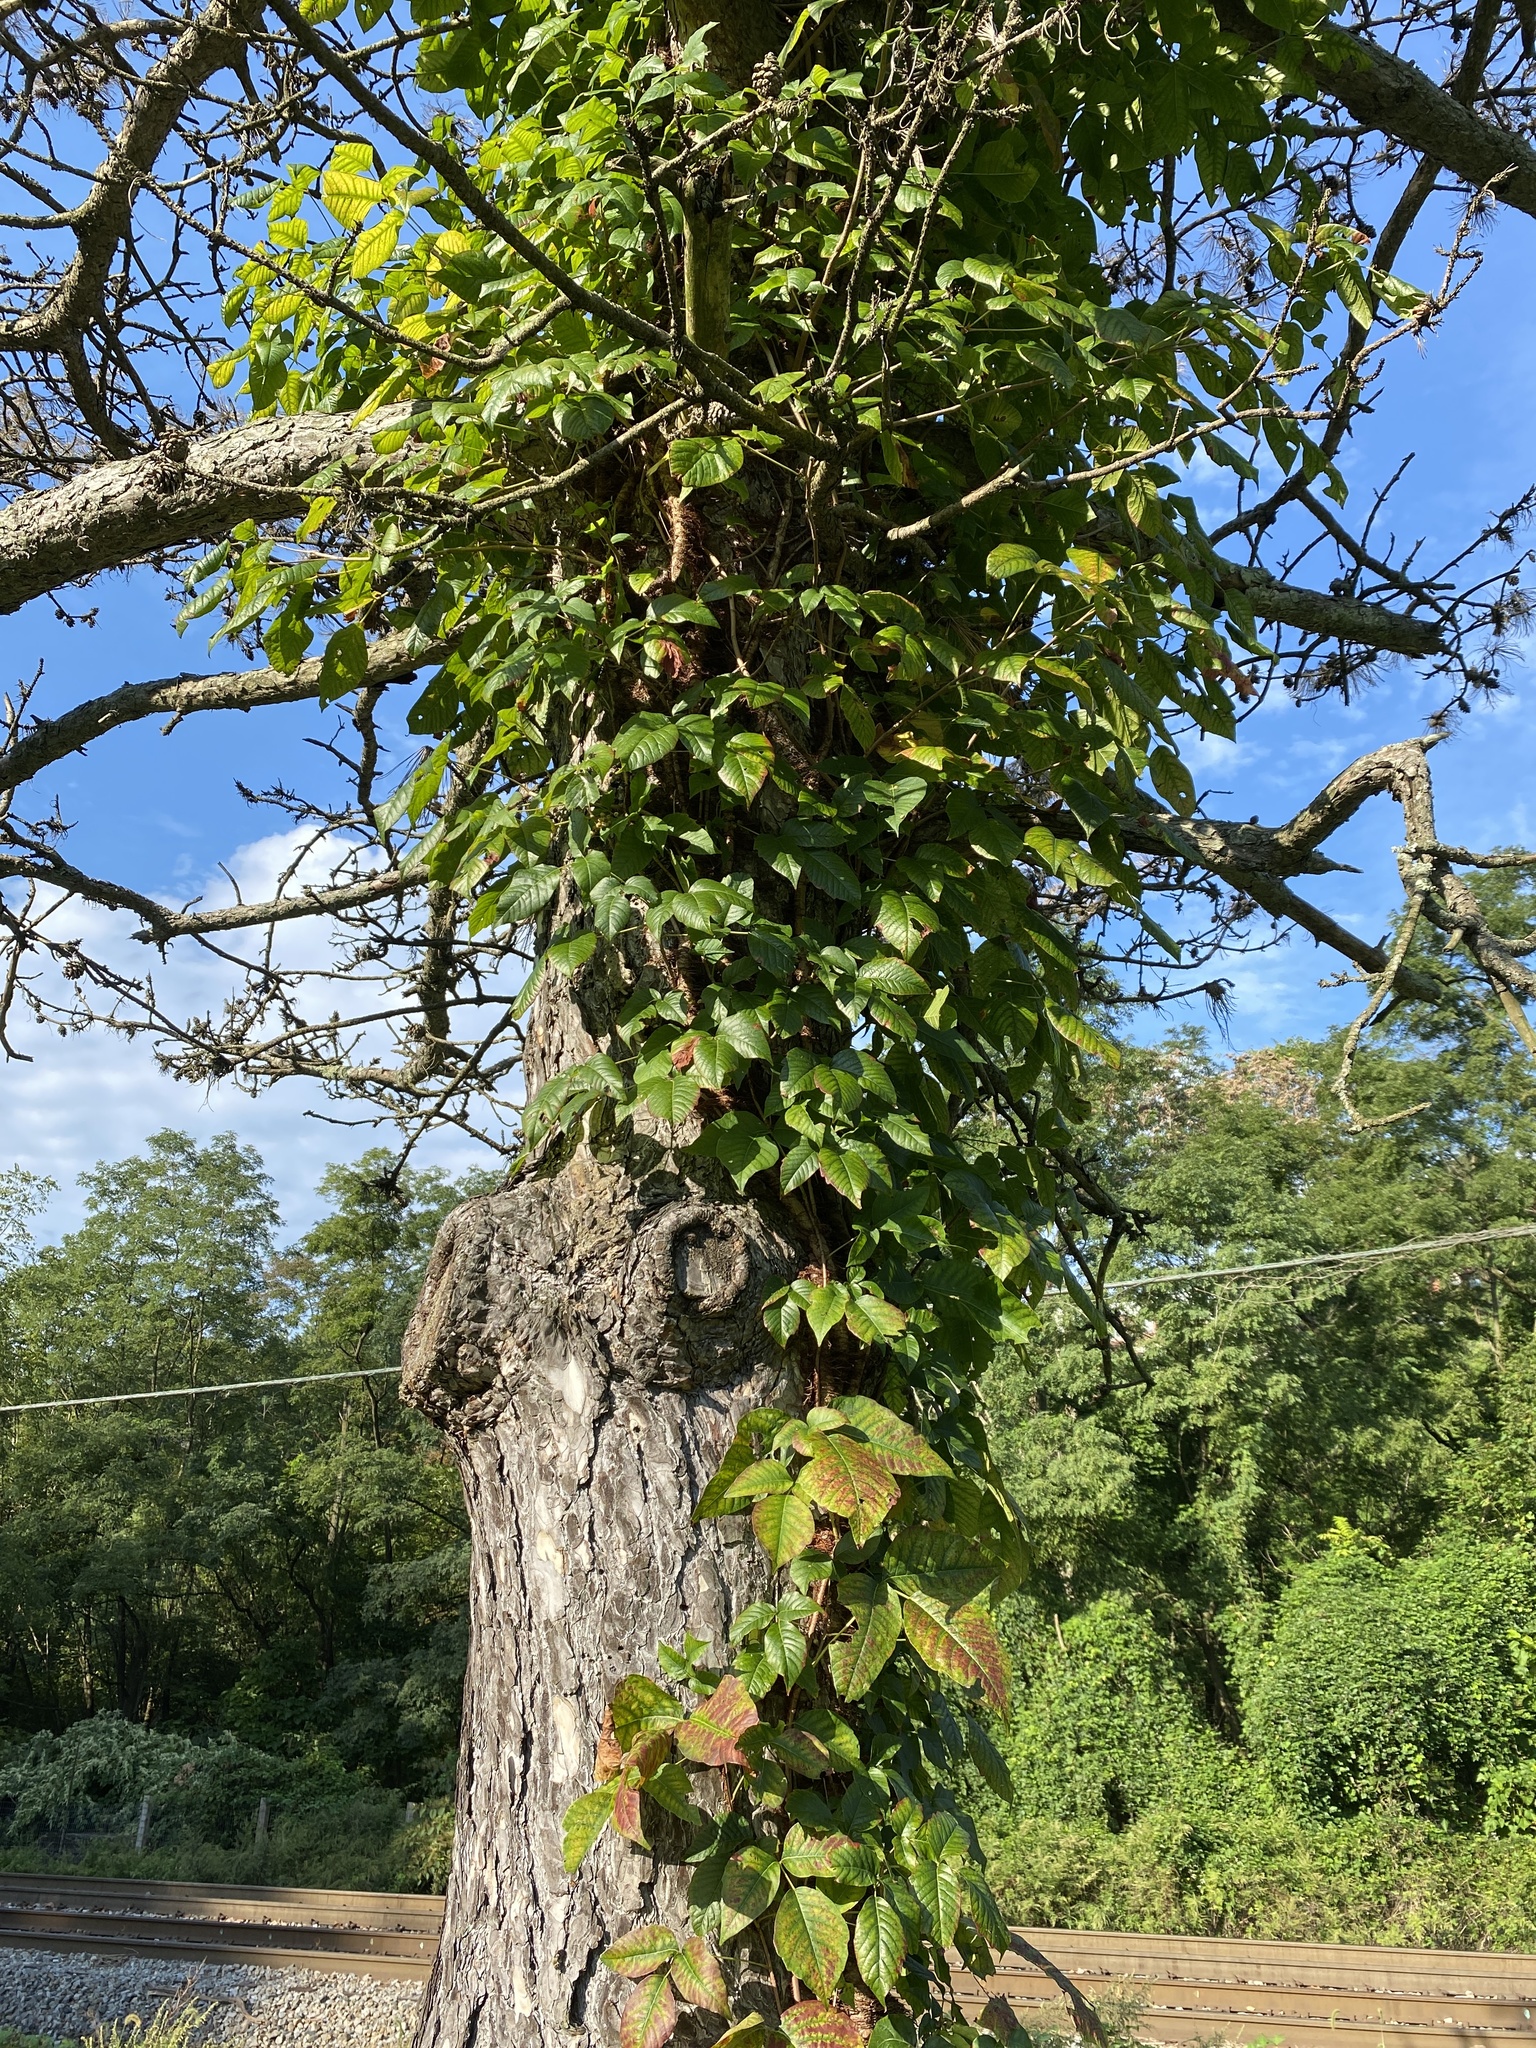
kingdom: Plantae
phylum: Tracheophyta
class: Magnoliopsida
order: Sapindales
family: Anacardiaceae
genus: Toxicodendron
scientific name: Toxicodendron radicans
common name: Poison ivy
